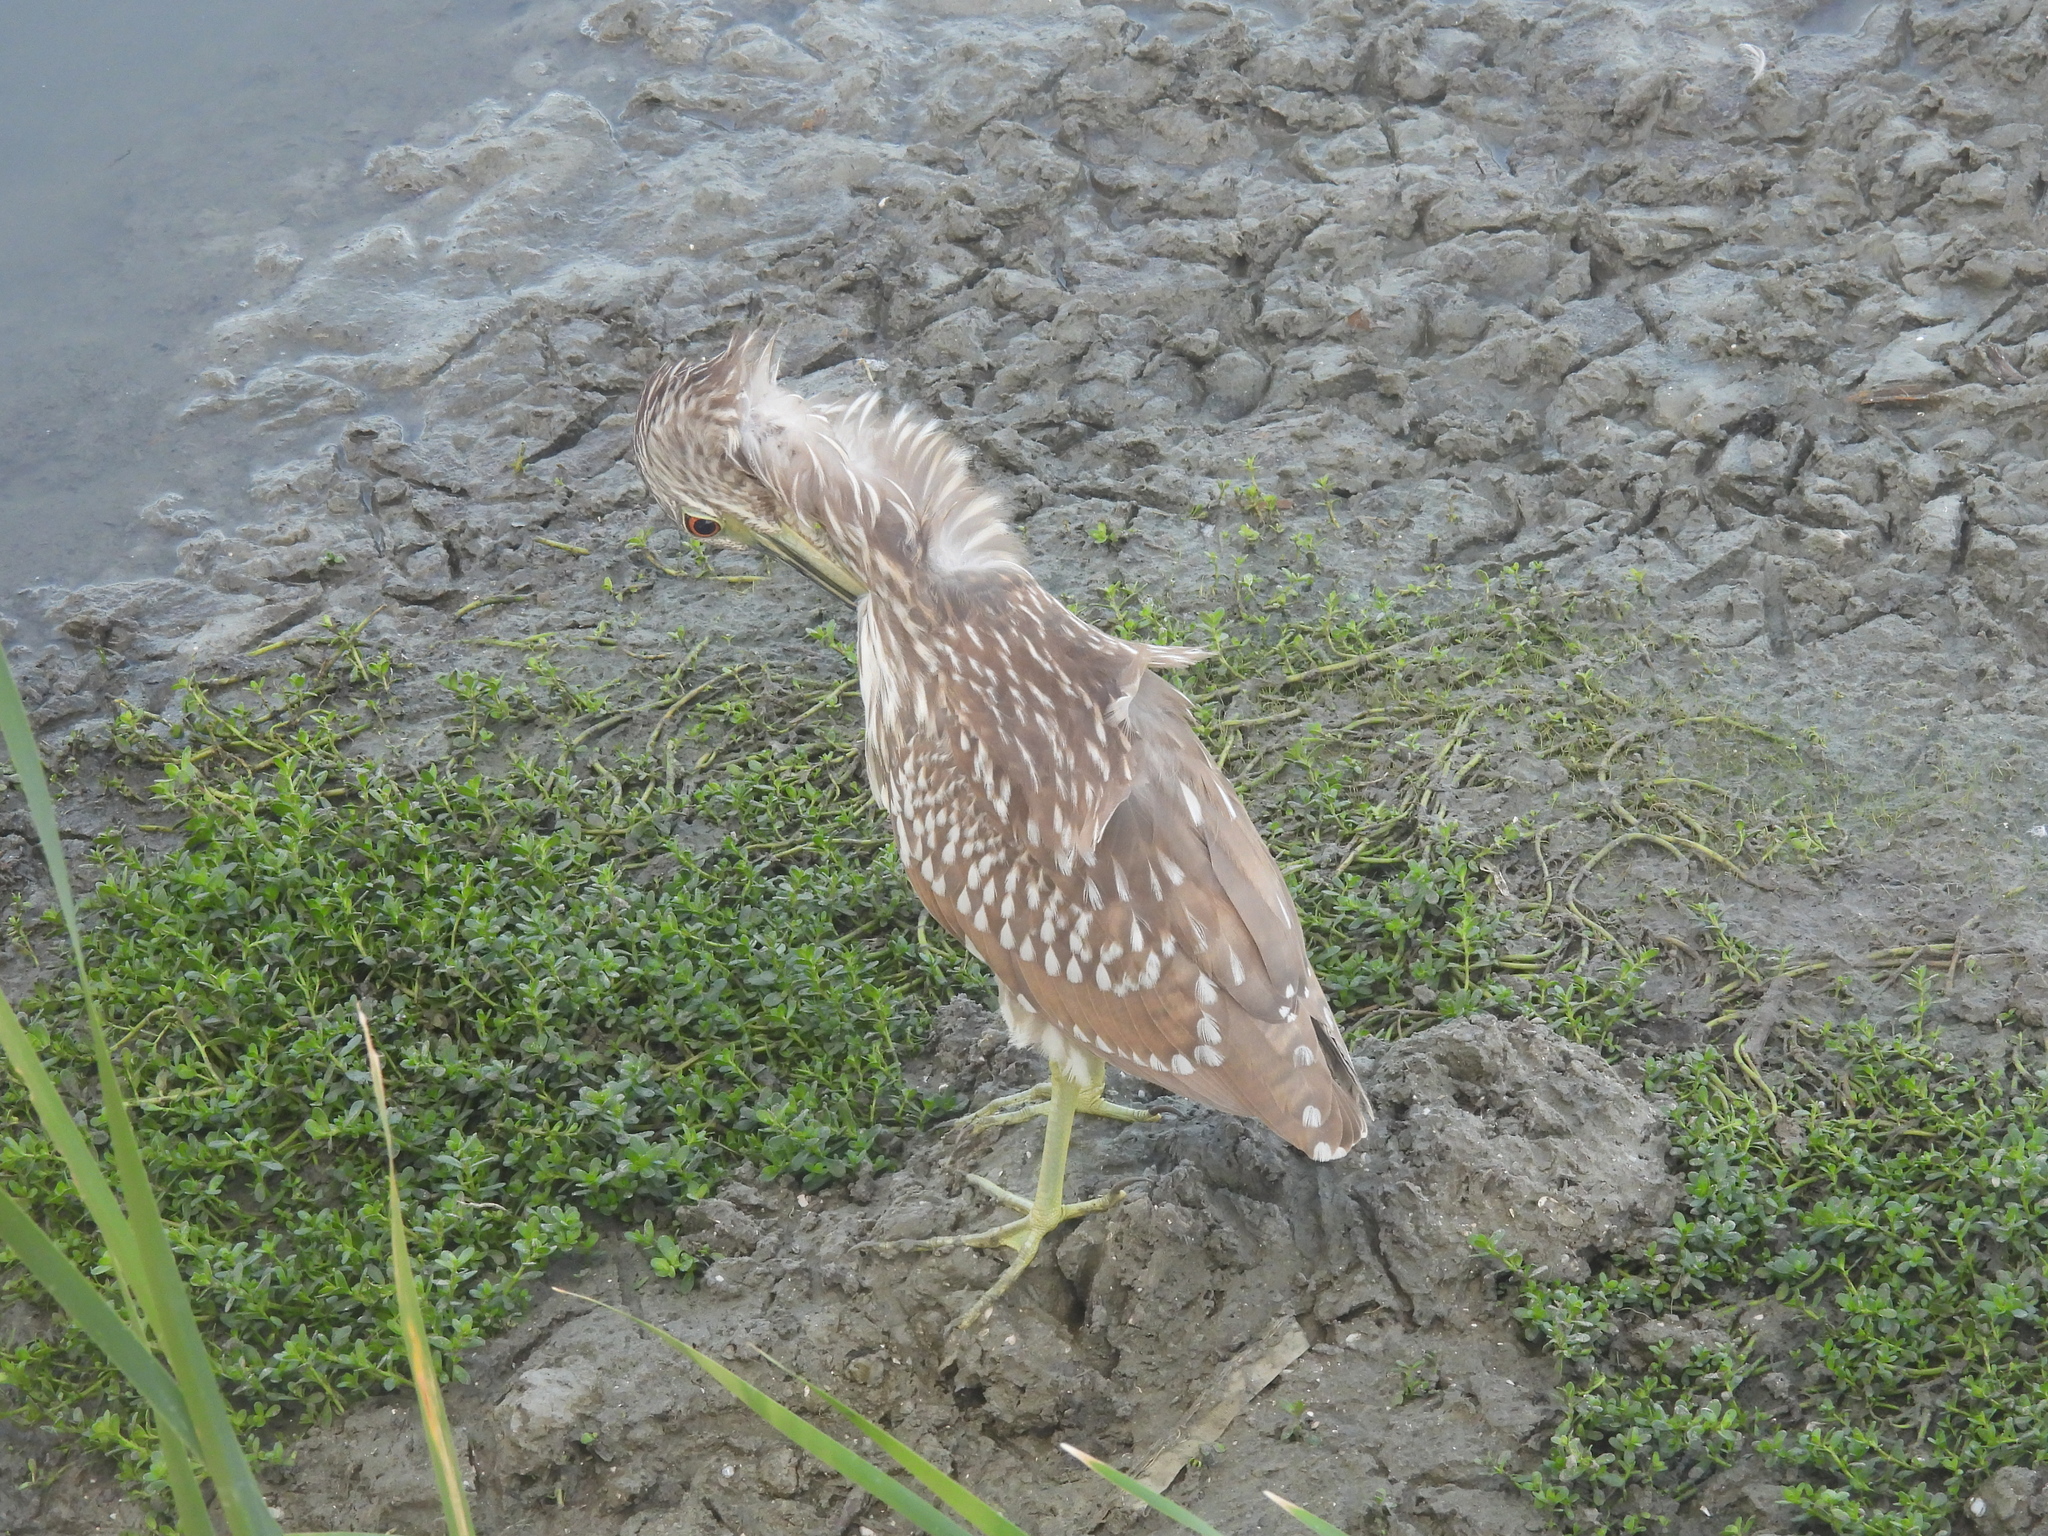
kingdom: Animalia
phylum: Chordata
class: Aves
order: Pelecaniformes
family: Ardeidae
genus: Nycticorax
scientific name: Nycticorax nycticorax
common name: Black-crowned night heron
